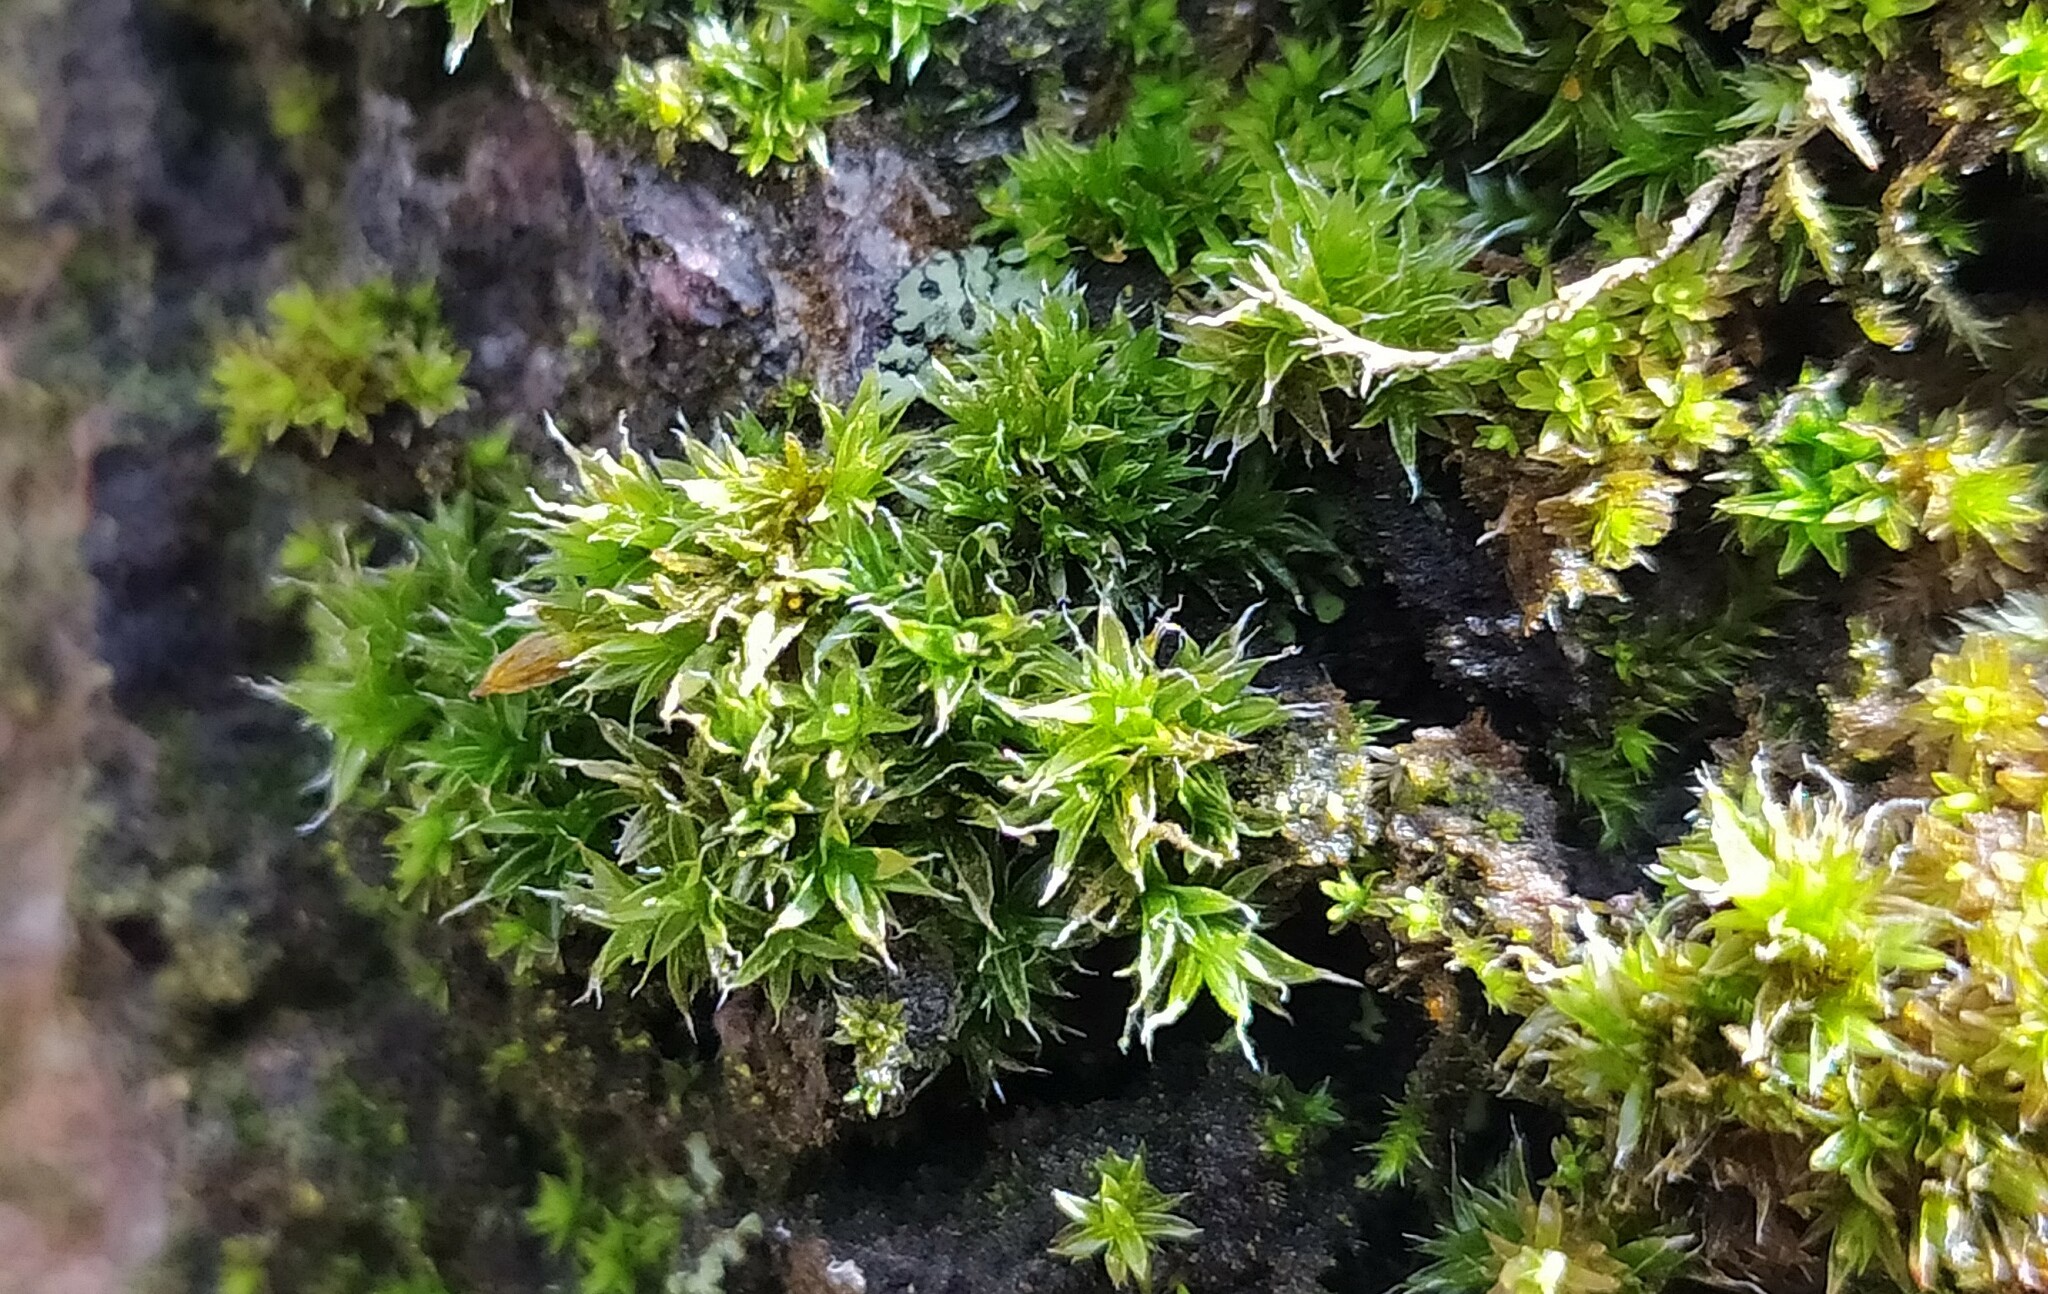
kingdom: Plantae
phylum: Bryophyta
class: Bryopsida
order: Orthotrichales
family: Orthotrichaceae
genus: Orthotrichum
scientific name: Orthotrichum diaphanum
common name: White-tipped bristle-moss
